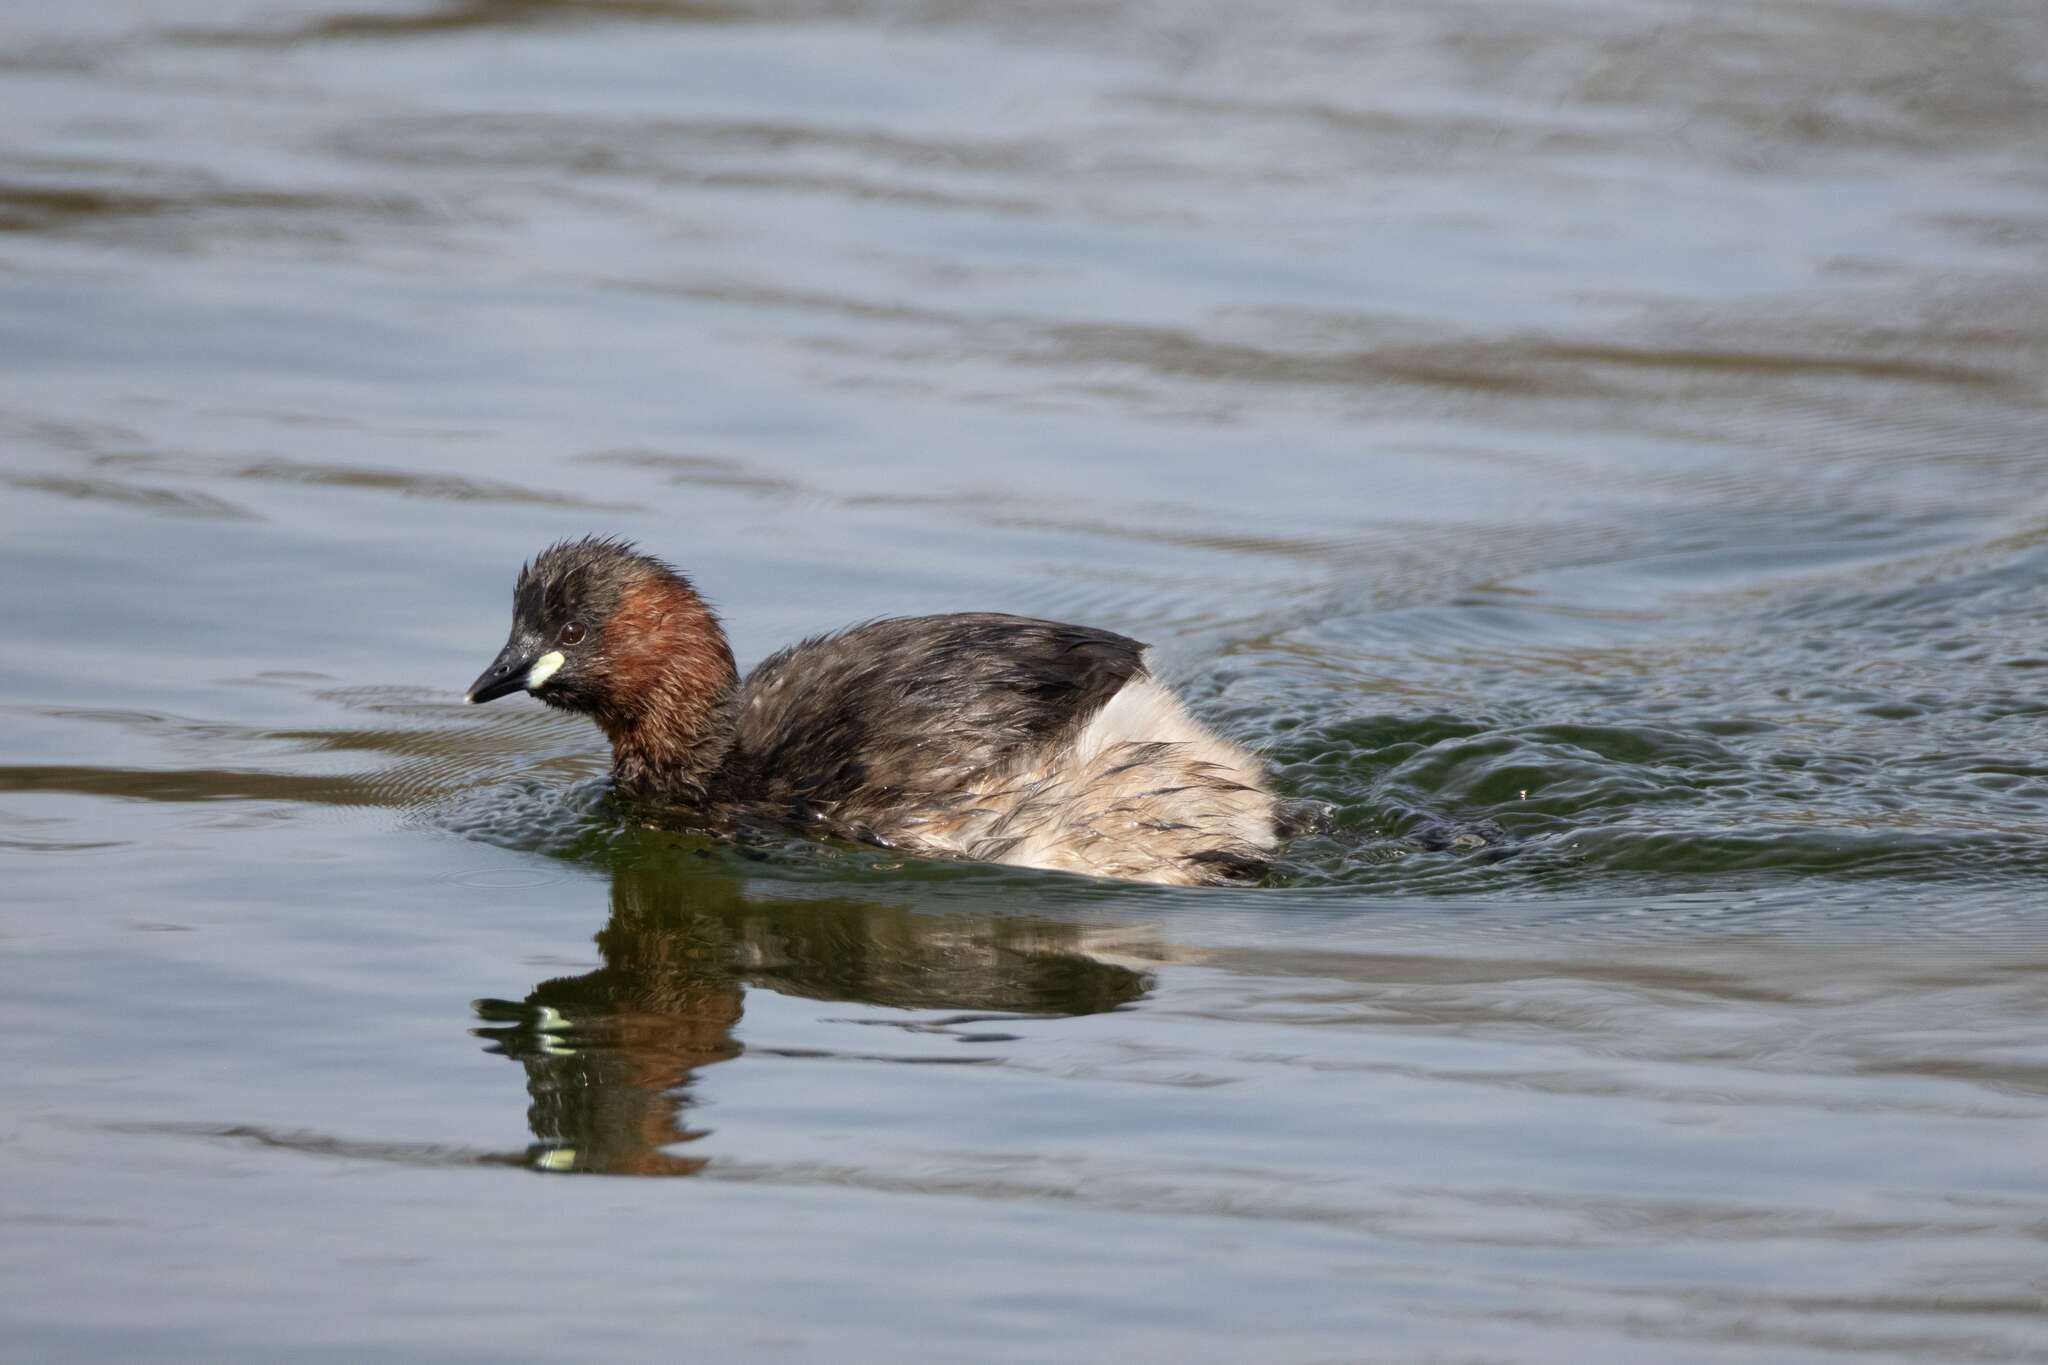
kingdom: Animalia
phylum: Chordata
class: Aves
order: Podicipediformes
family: Podicipedidae
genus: Tachybaptus
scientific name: Tachybaptus ruficollis
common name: Little grebe
